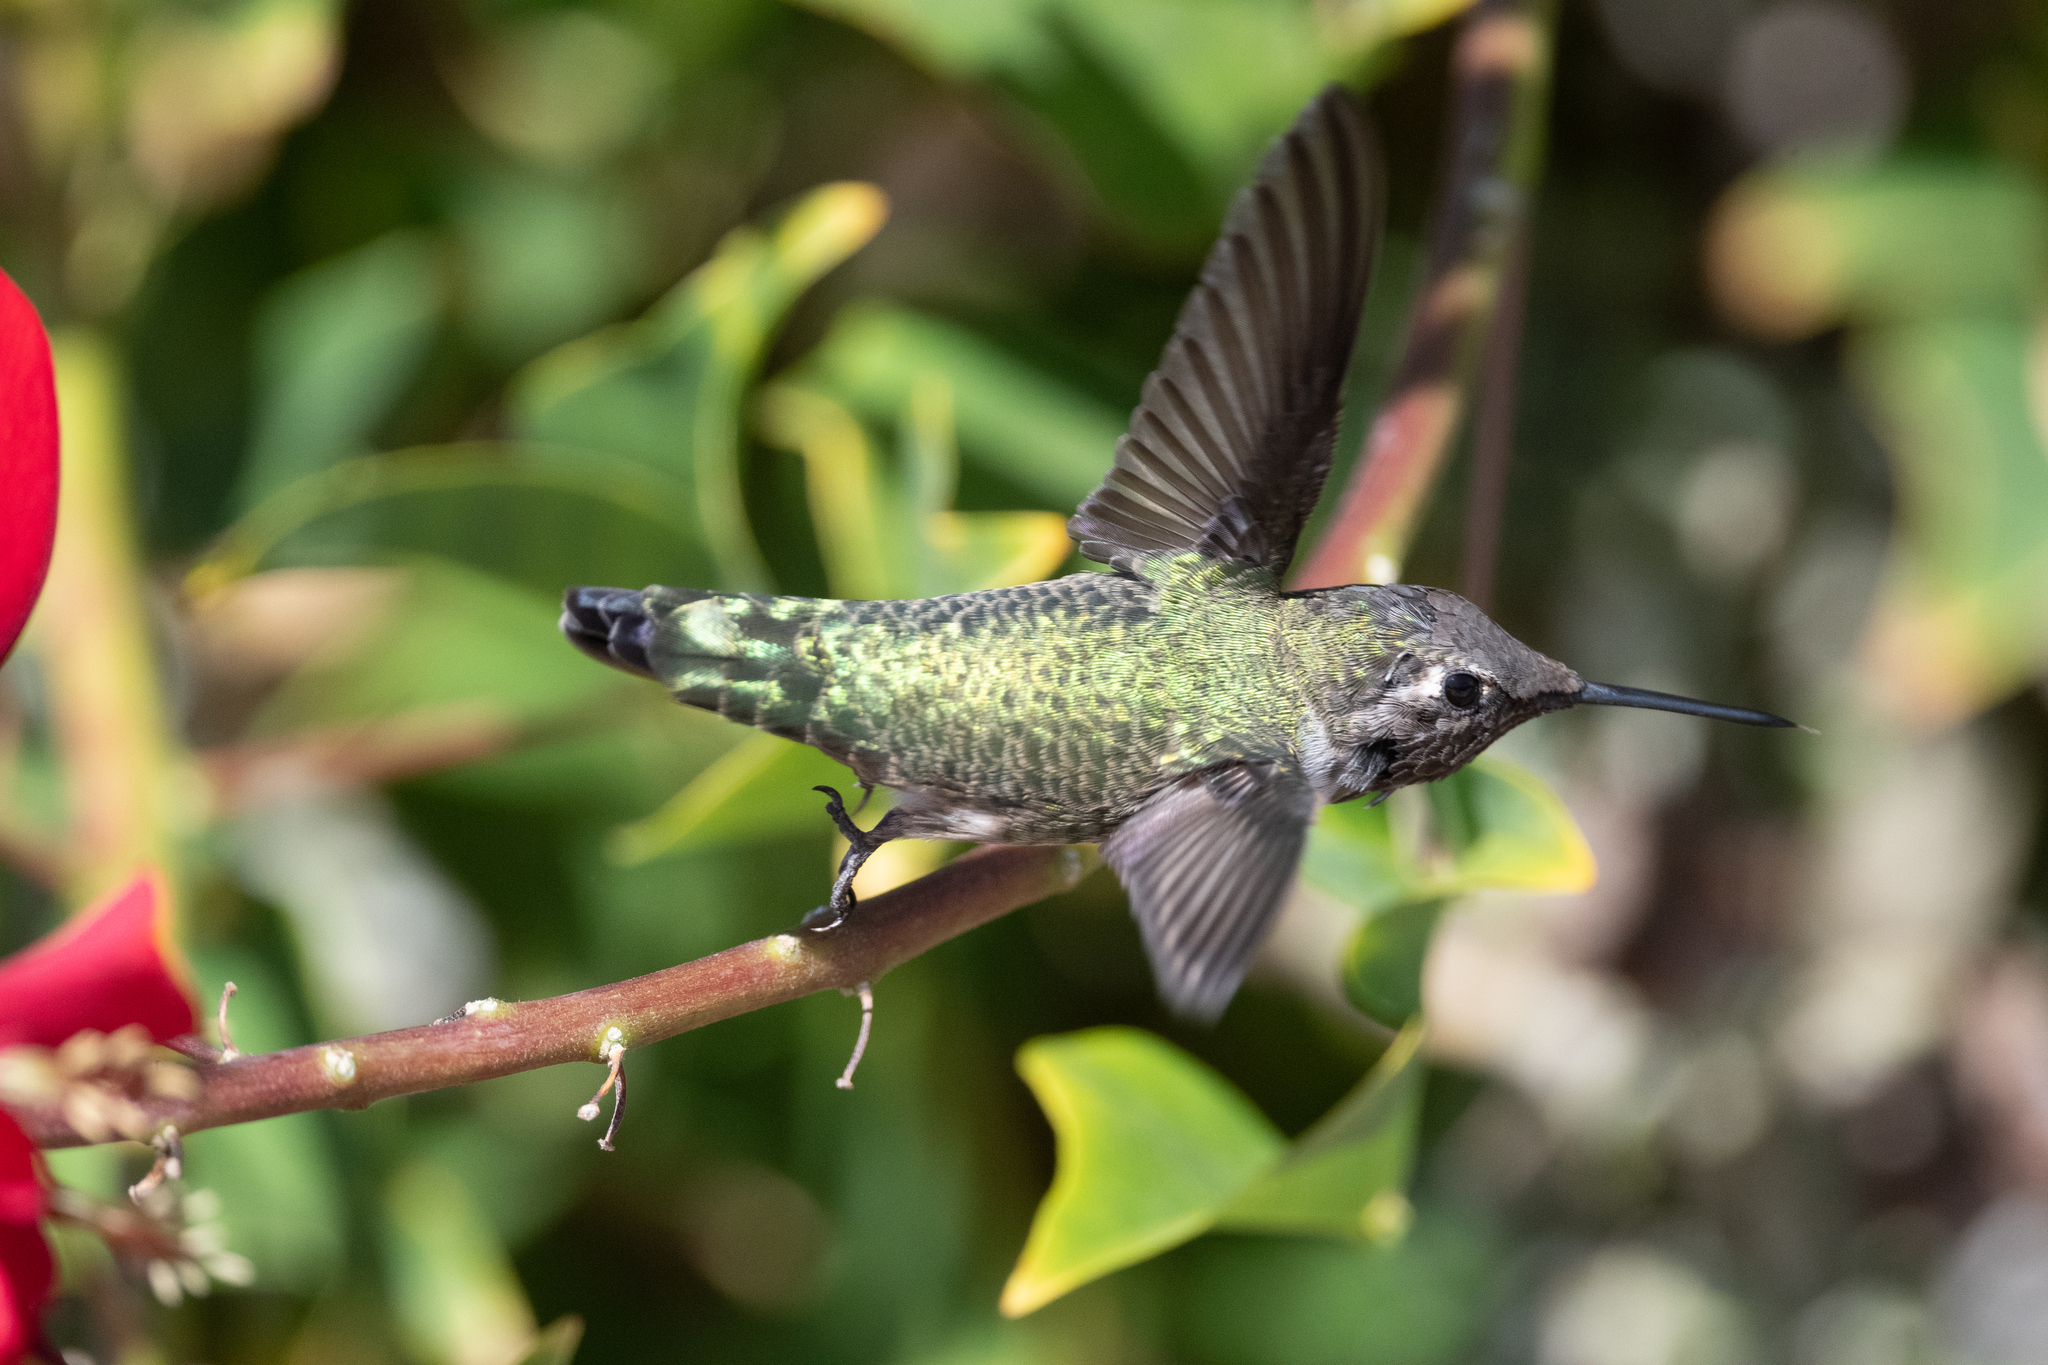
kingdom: Animalia
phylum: Chordata
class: Aves
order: Apodiformes
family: Trochilidae
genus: Calypte
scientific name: Calypte anna
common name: Anna's hummingbird
